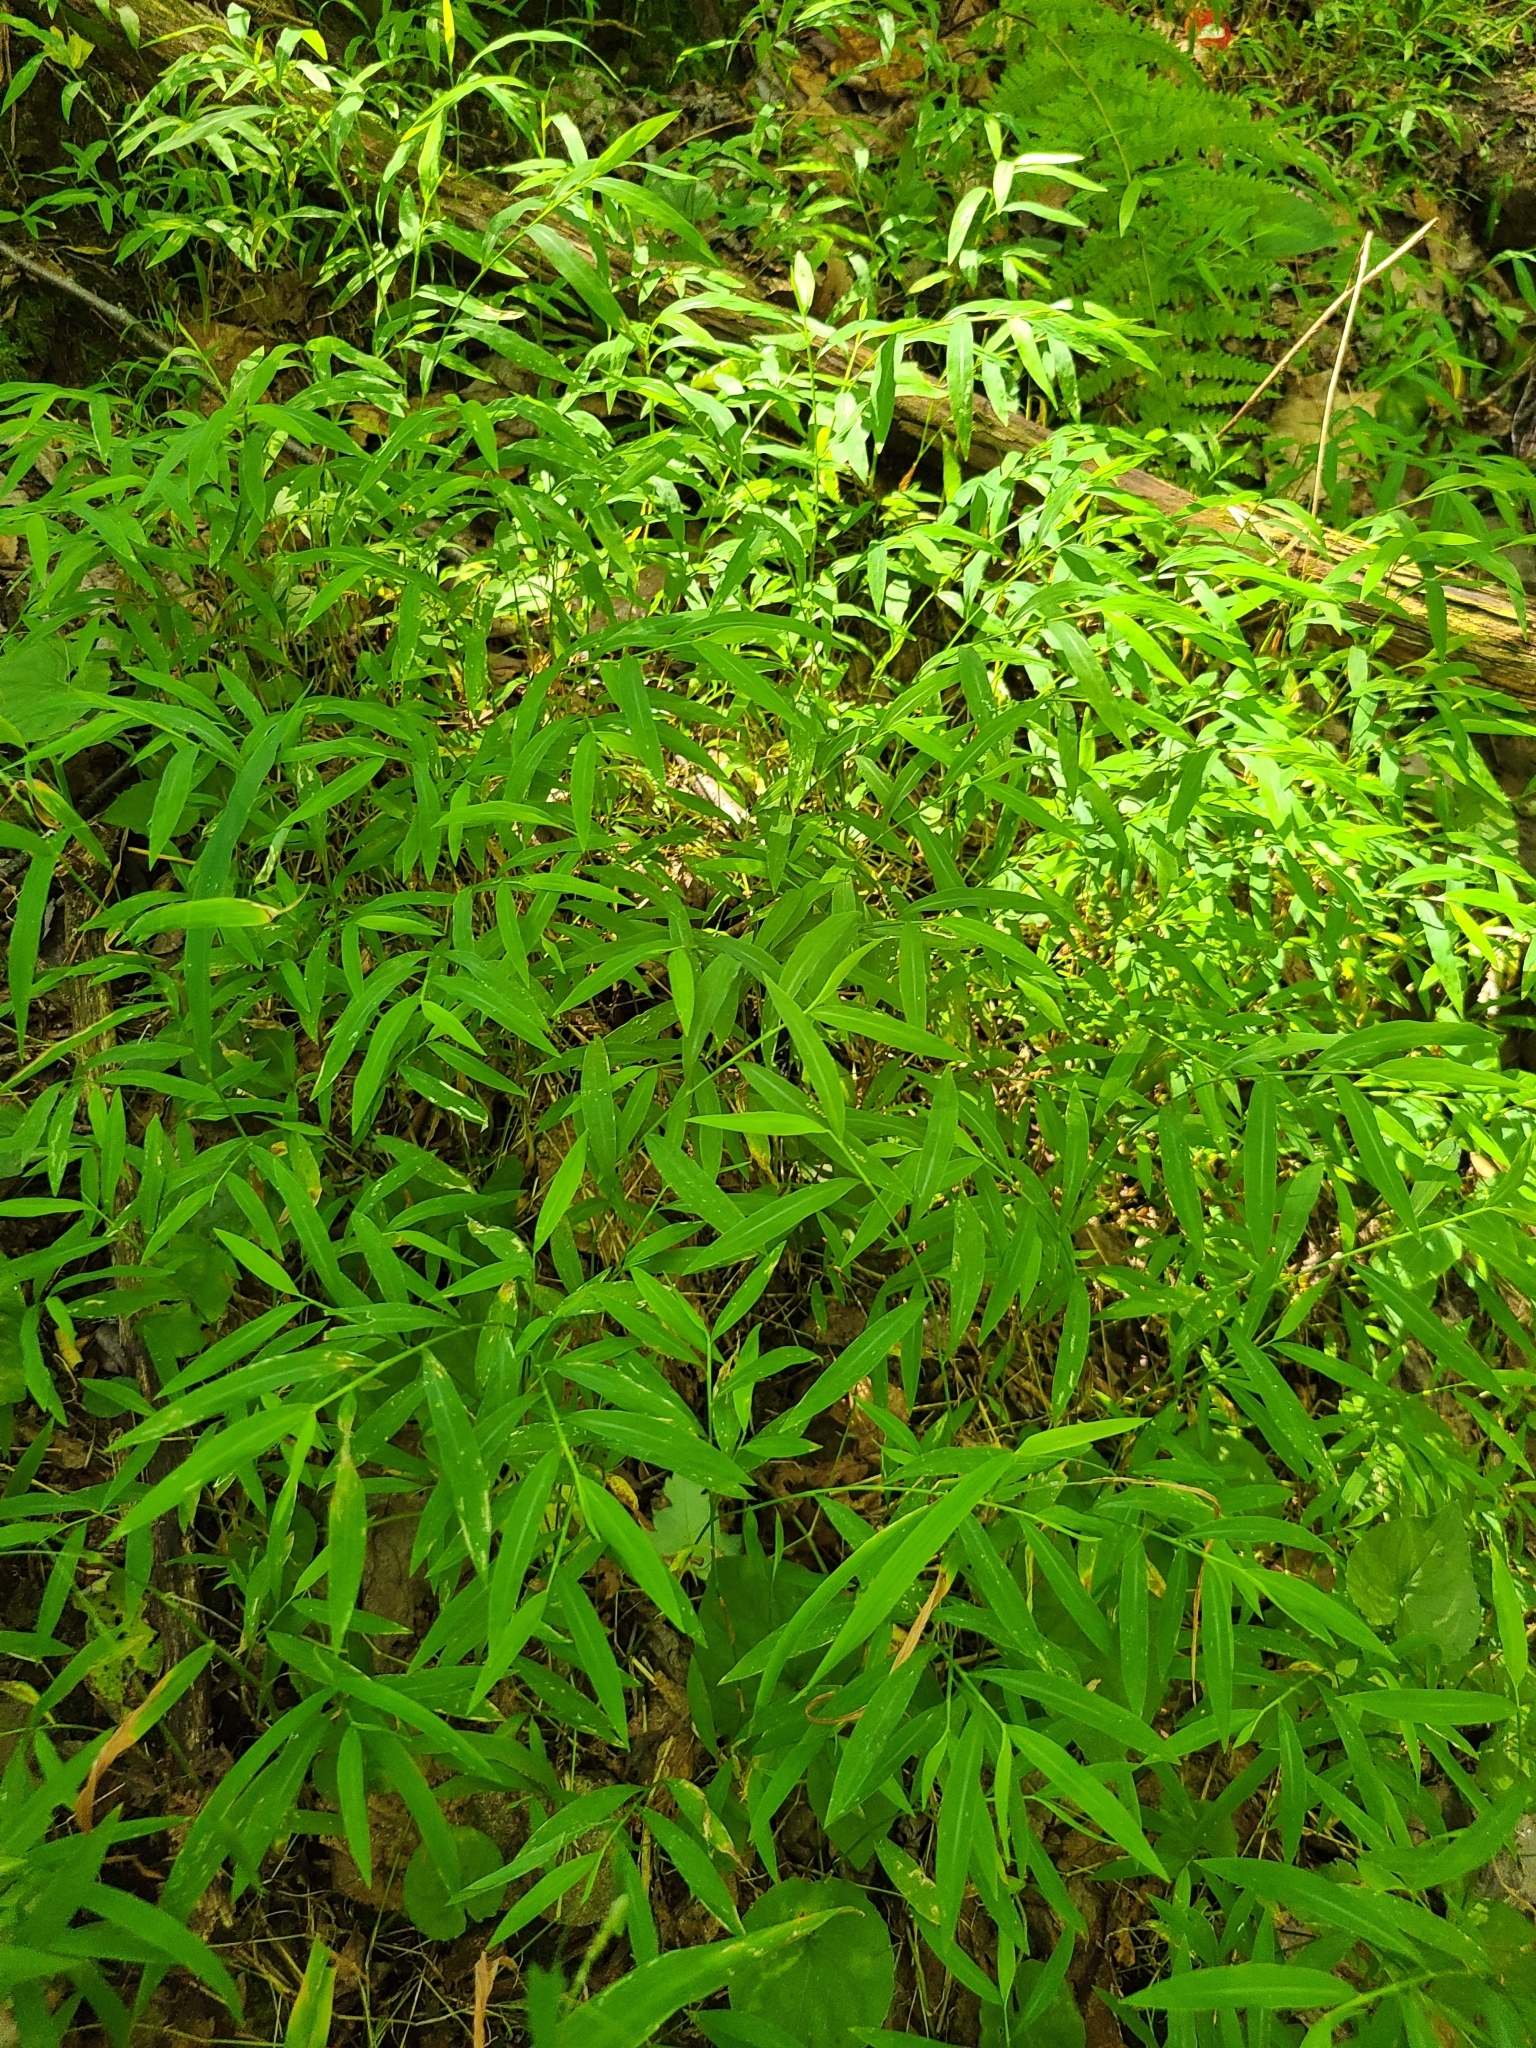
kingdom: Plantae
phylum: Tracheophyta
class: Liliopsida
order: Poales
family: Poaceae
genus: Microstegium
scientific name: Microstegium vimineum
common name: Japanese stiltgrass
